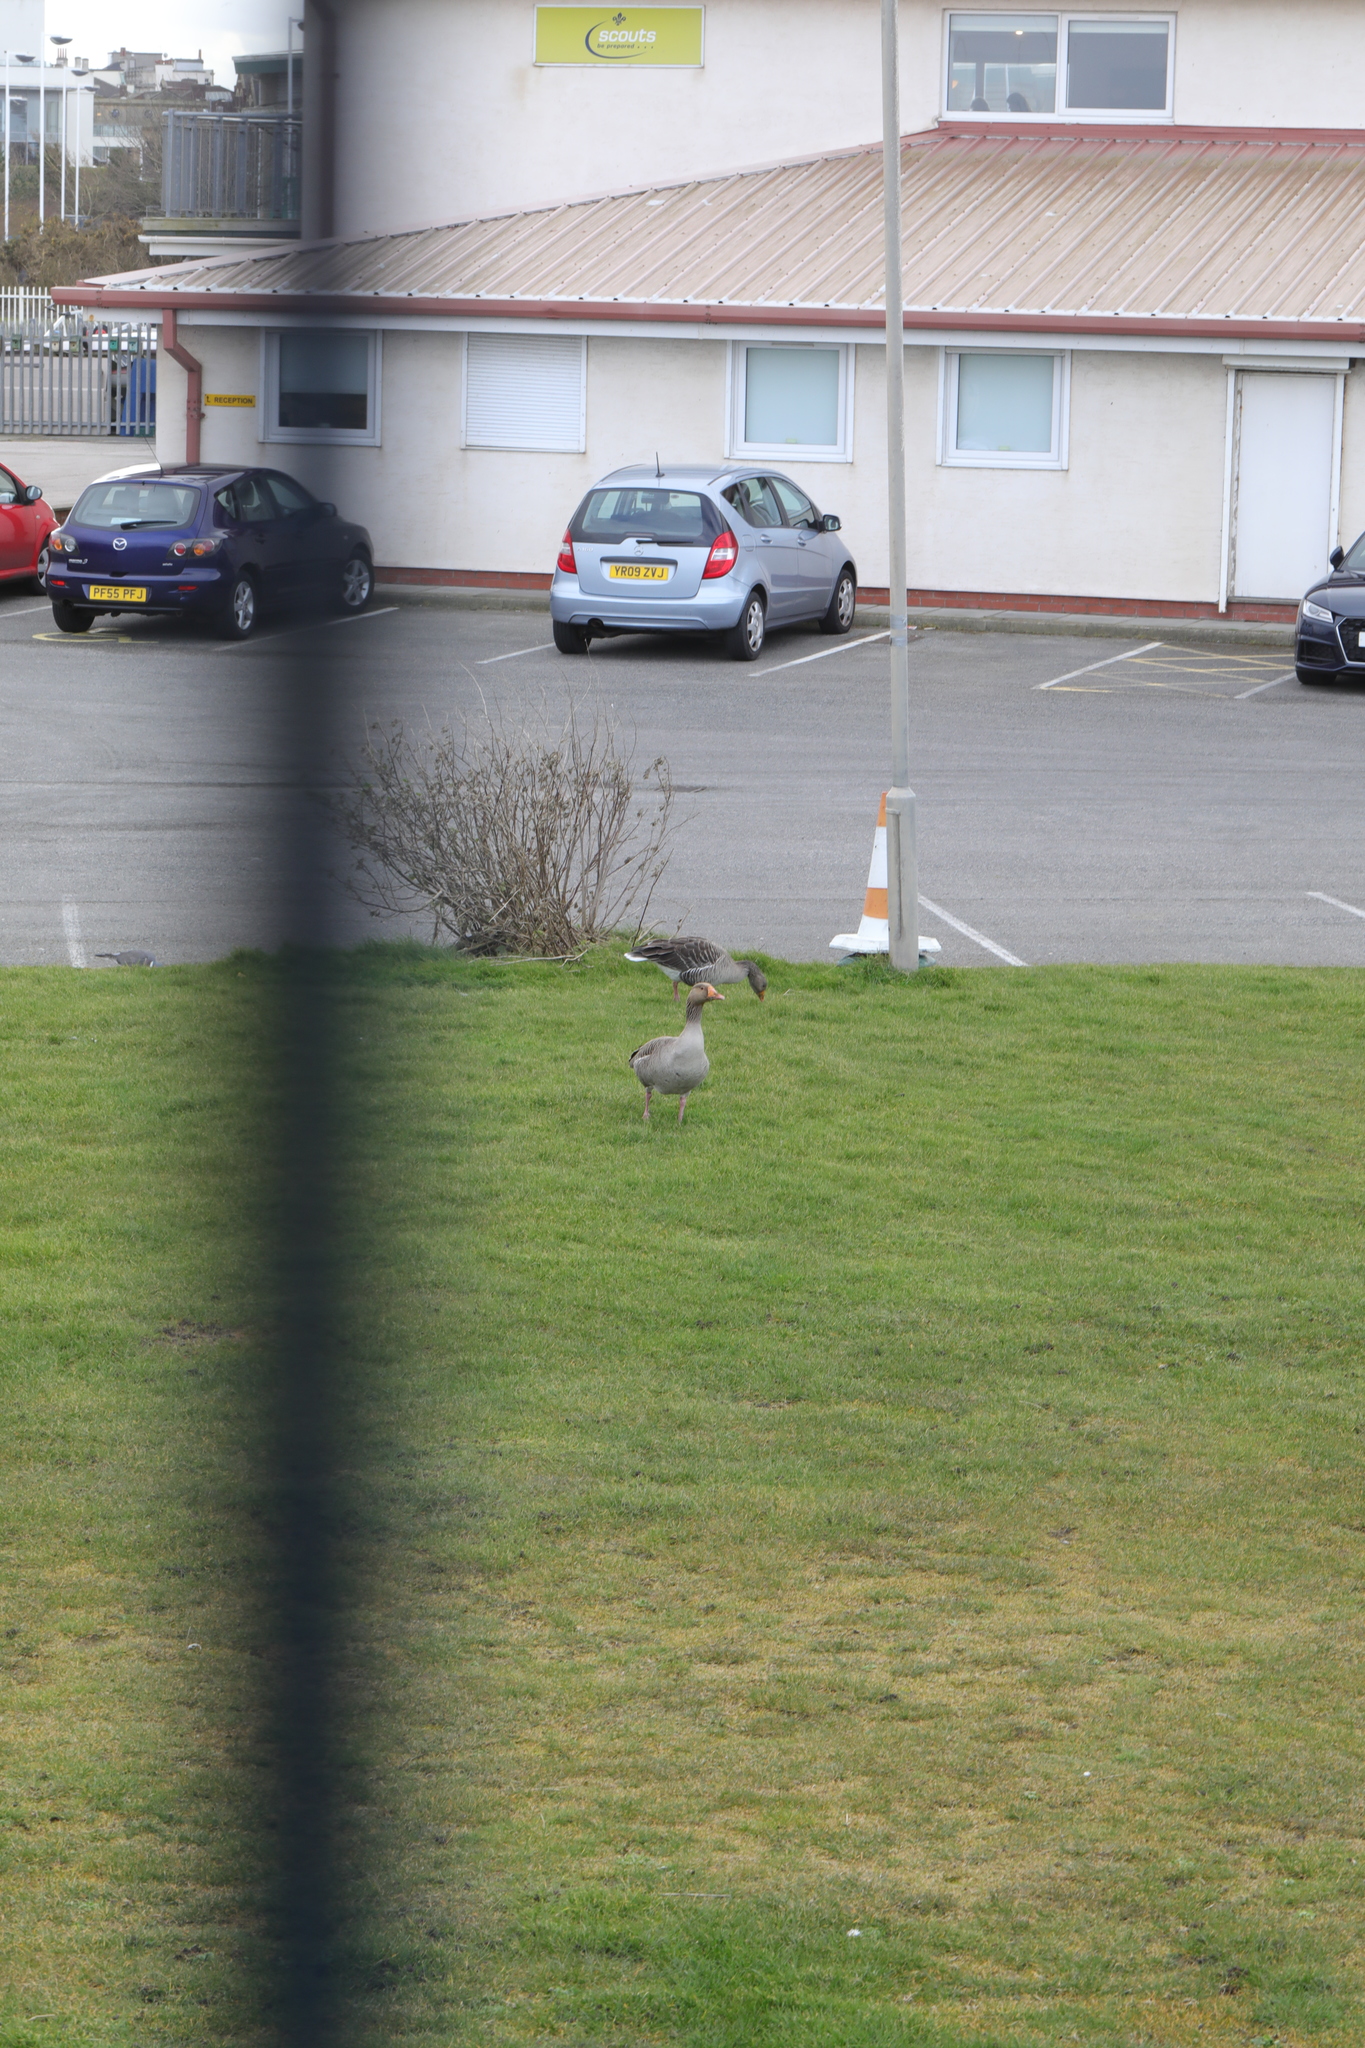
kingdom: Animalia
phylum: Chordata
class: Aves
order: Anseriformes
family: Anatidae
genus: Anser
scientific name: Anser anser
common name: Greylag goose
